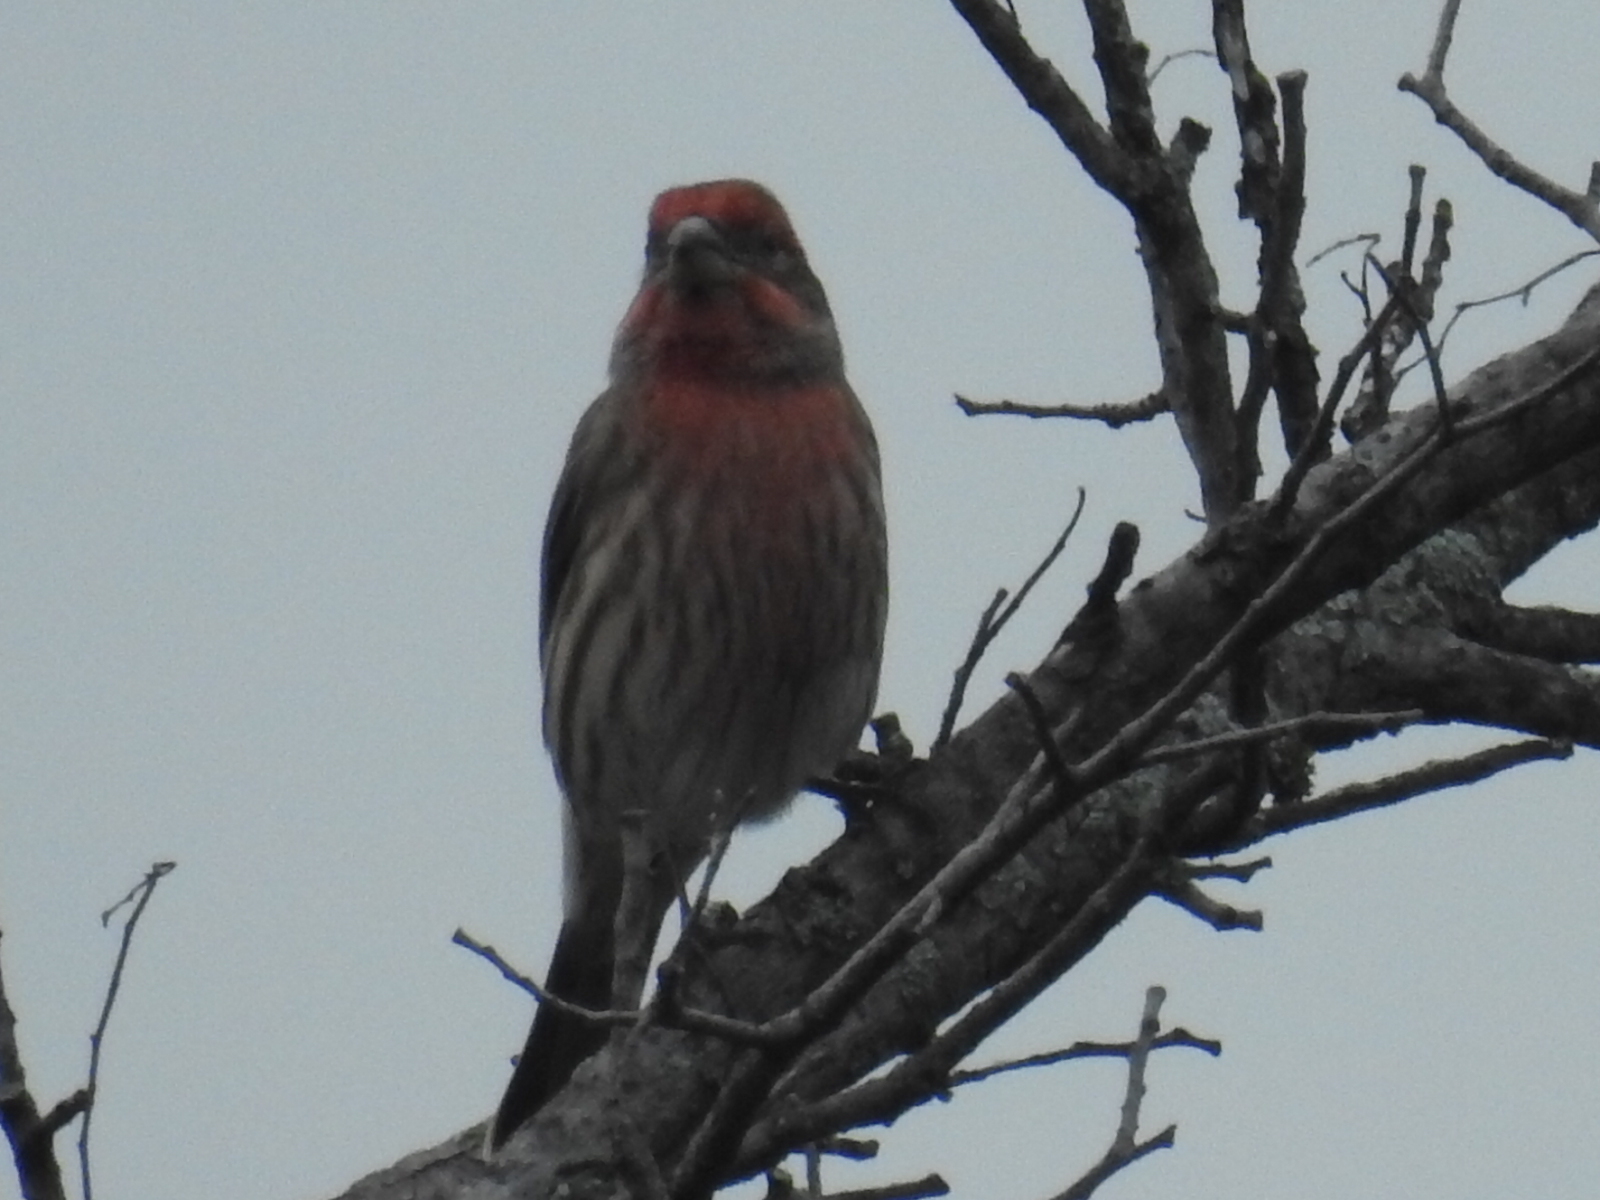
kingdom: Animalia
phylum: Chordata
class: Aves
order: Passeriformes
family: Fringillidae
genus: Haemorhous
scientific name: Haemorhous mexicanus
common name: House finch
